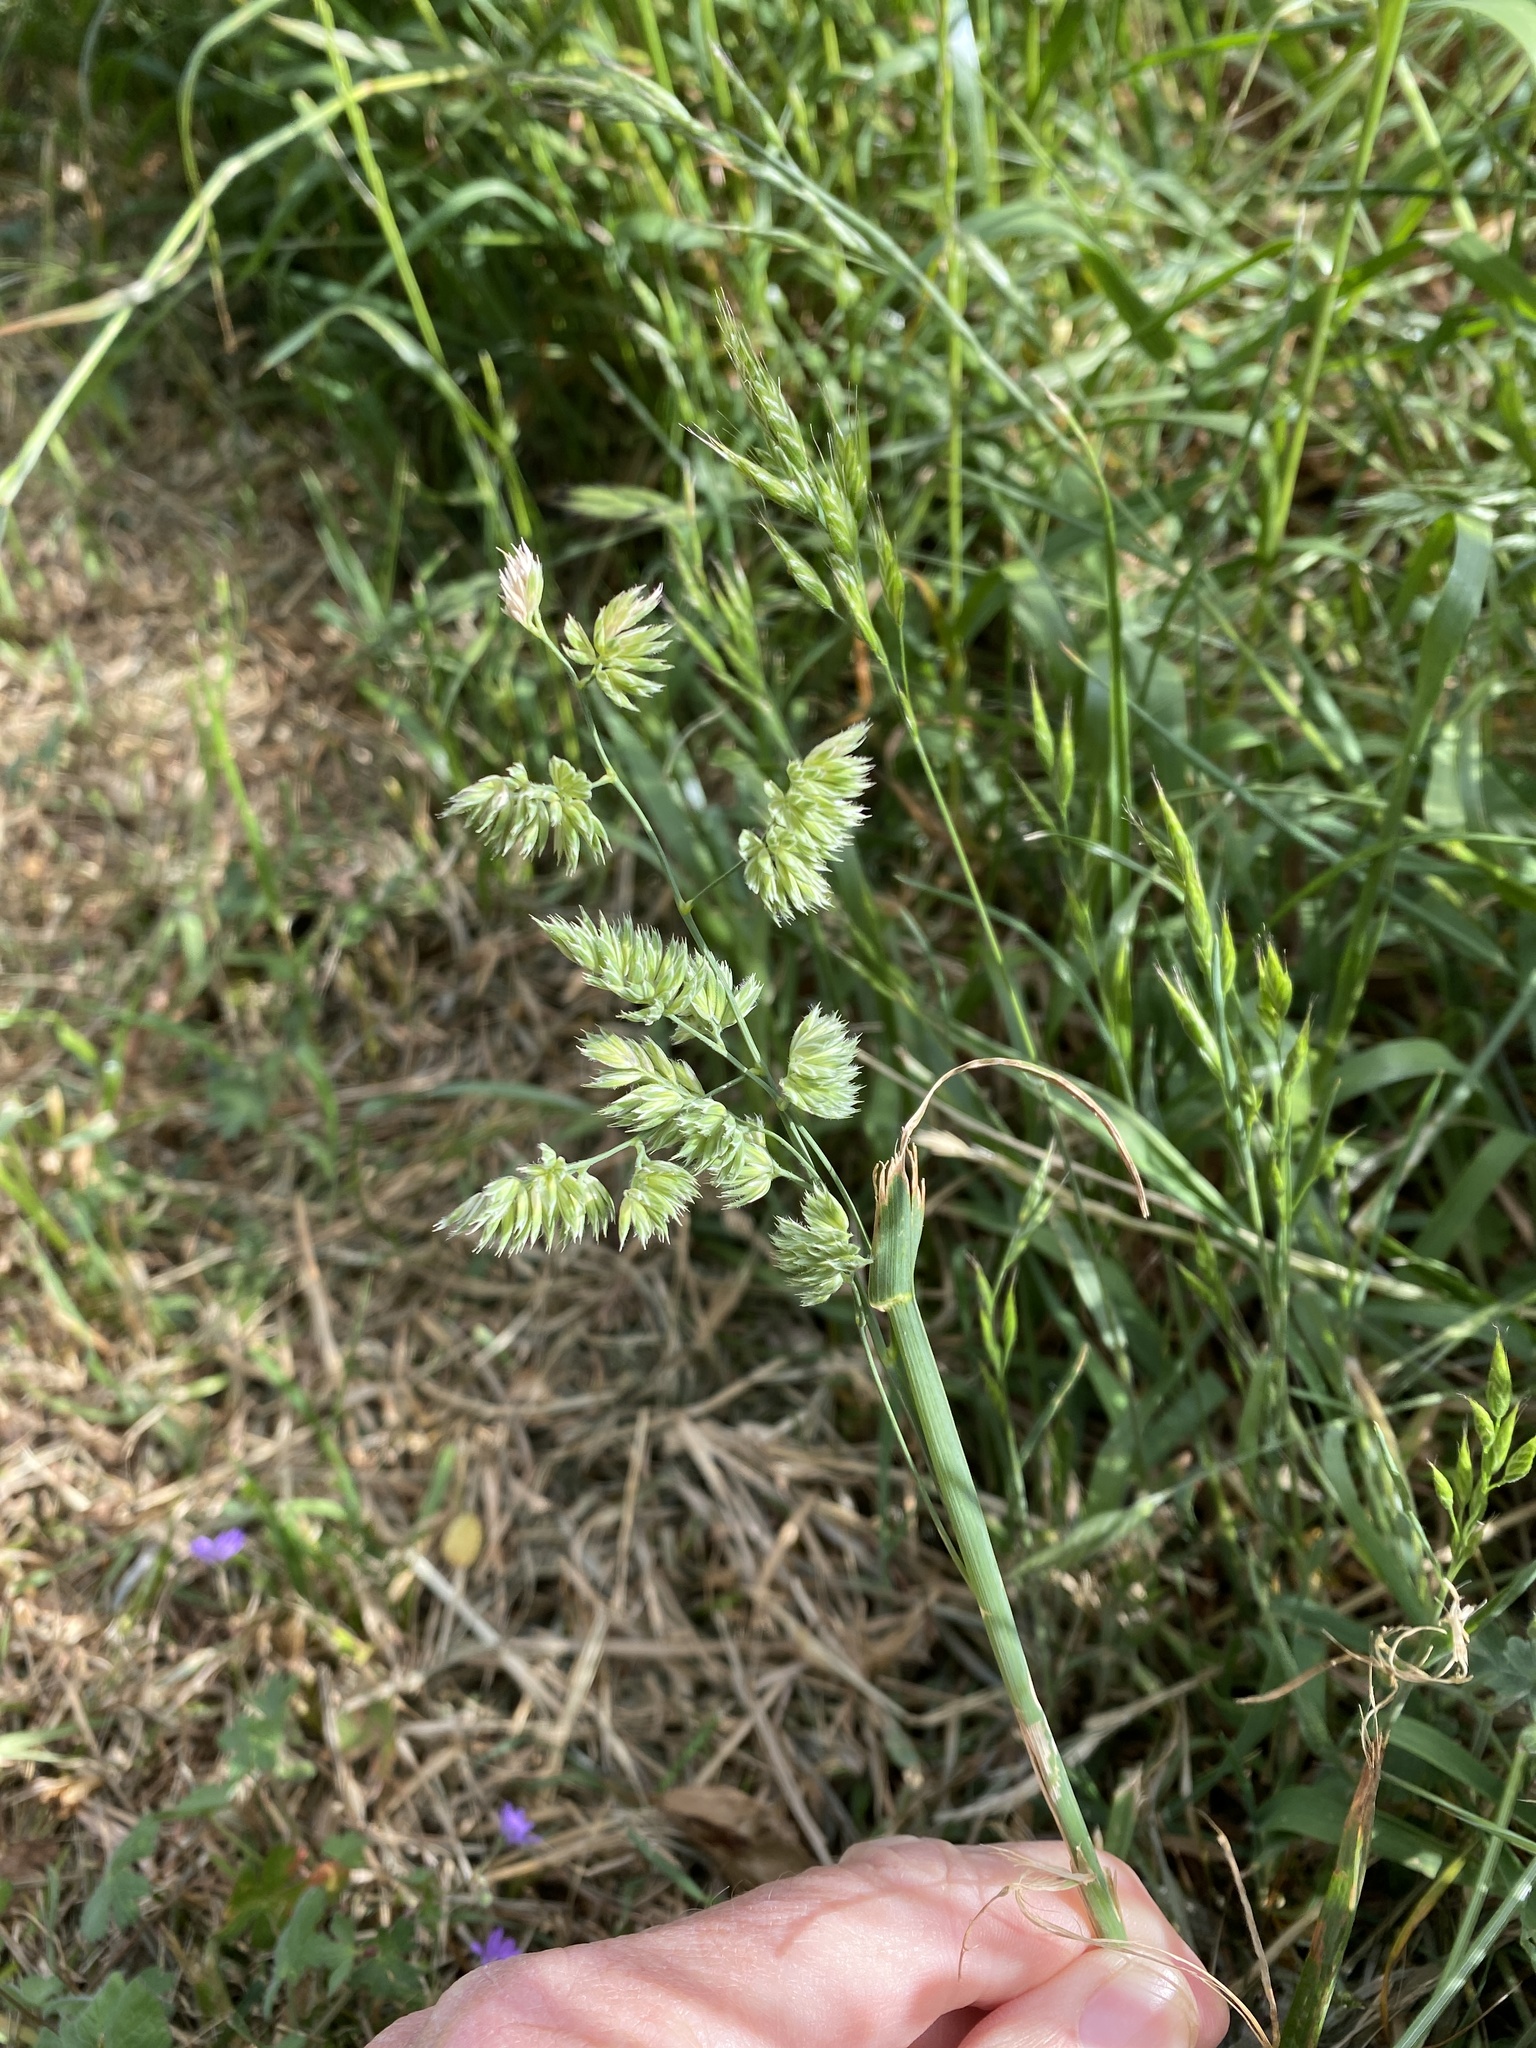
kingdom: Plantae
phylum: Tracheophyta
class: Liliopsida
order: Poales
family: Poaceae
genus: Dactylis
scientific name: Dactylis glomerata
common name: Orchardgrass
